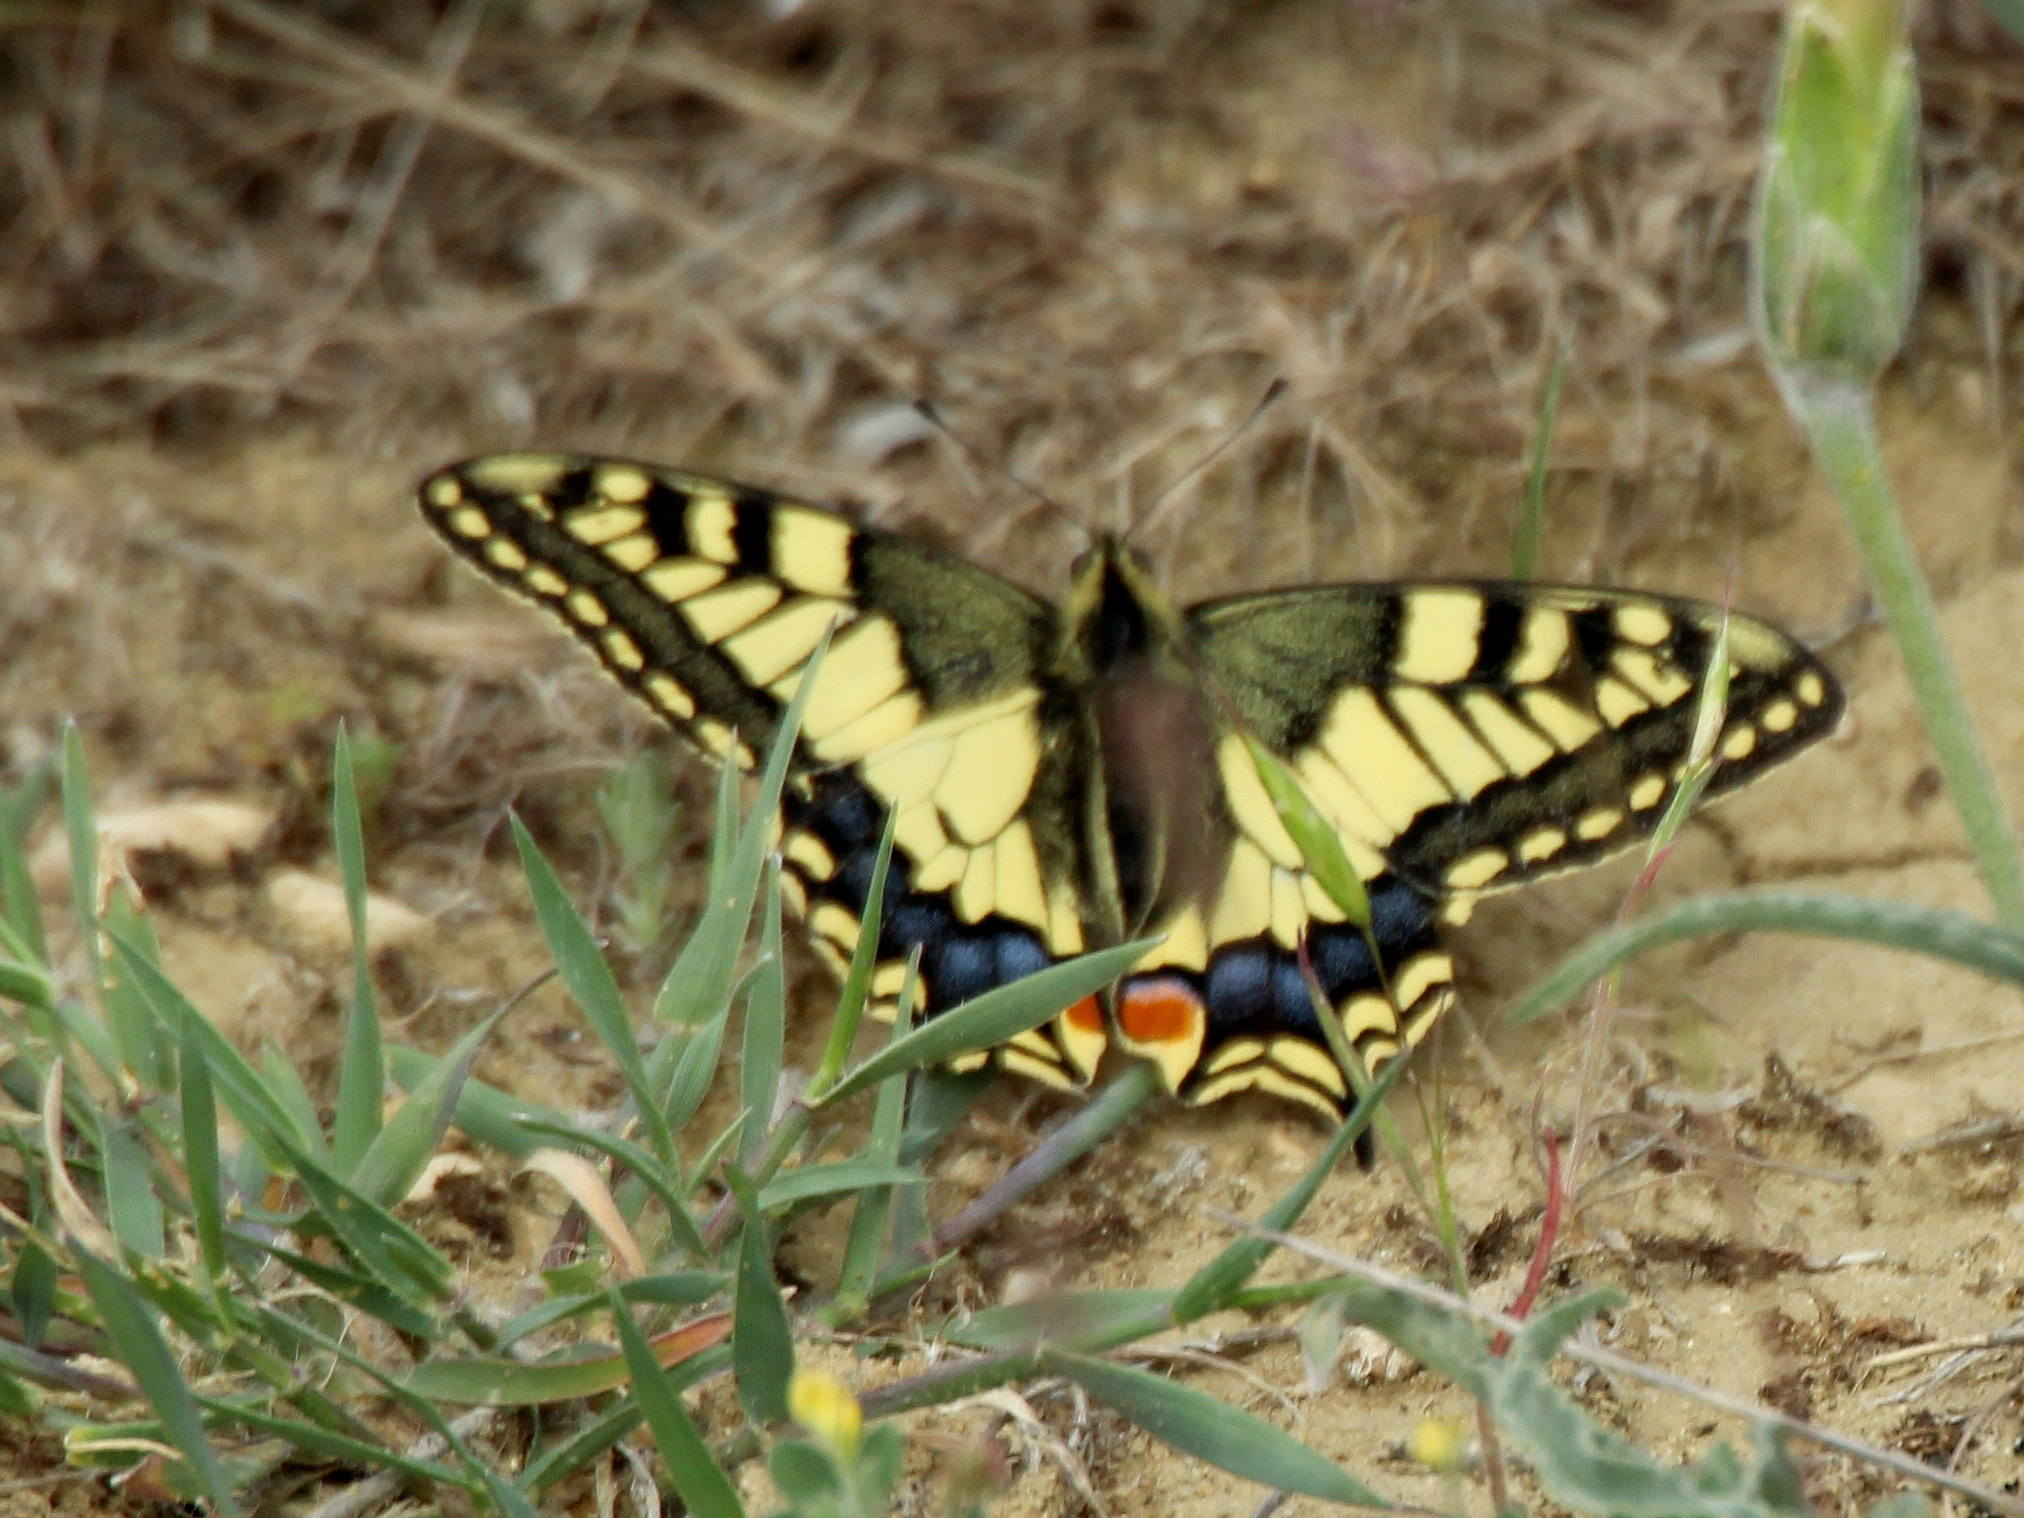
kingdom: Animalia
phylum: Arthropoda
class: Insecta
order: Lepidoptera
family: Papilionidae
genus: Papilio
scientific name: Papilio machaon
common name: Swallowtail
